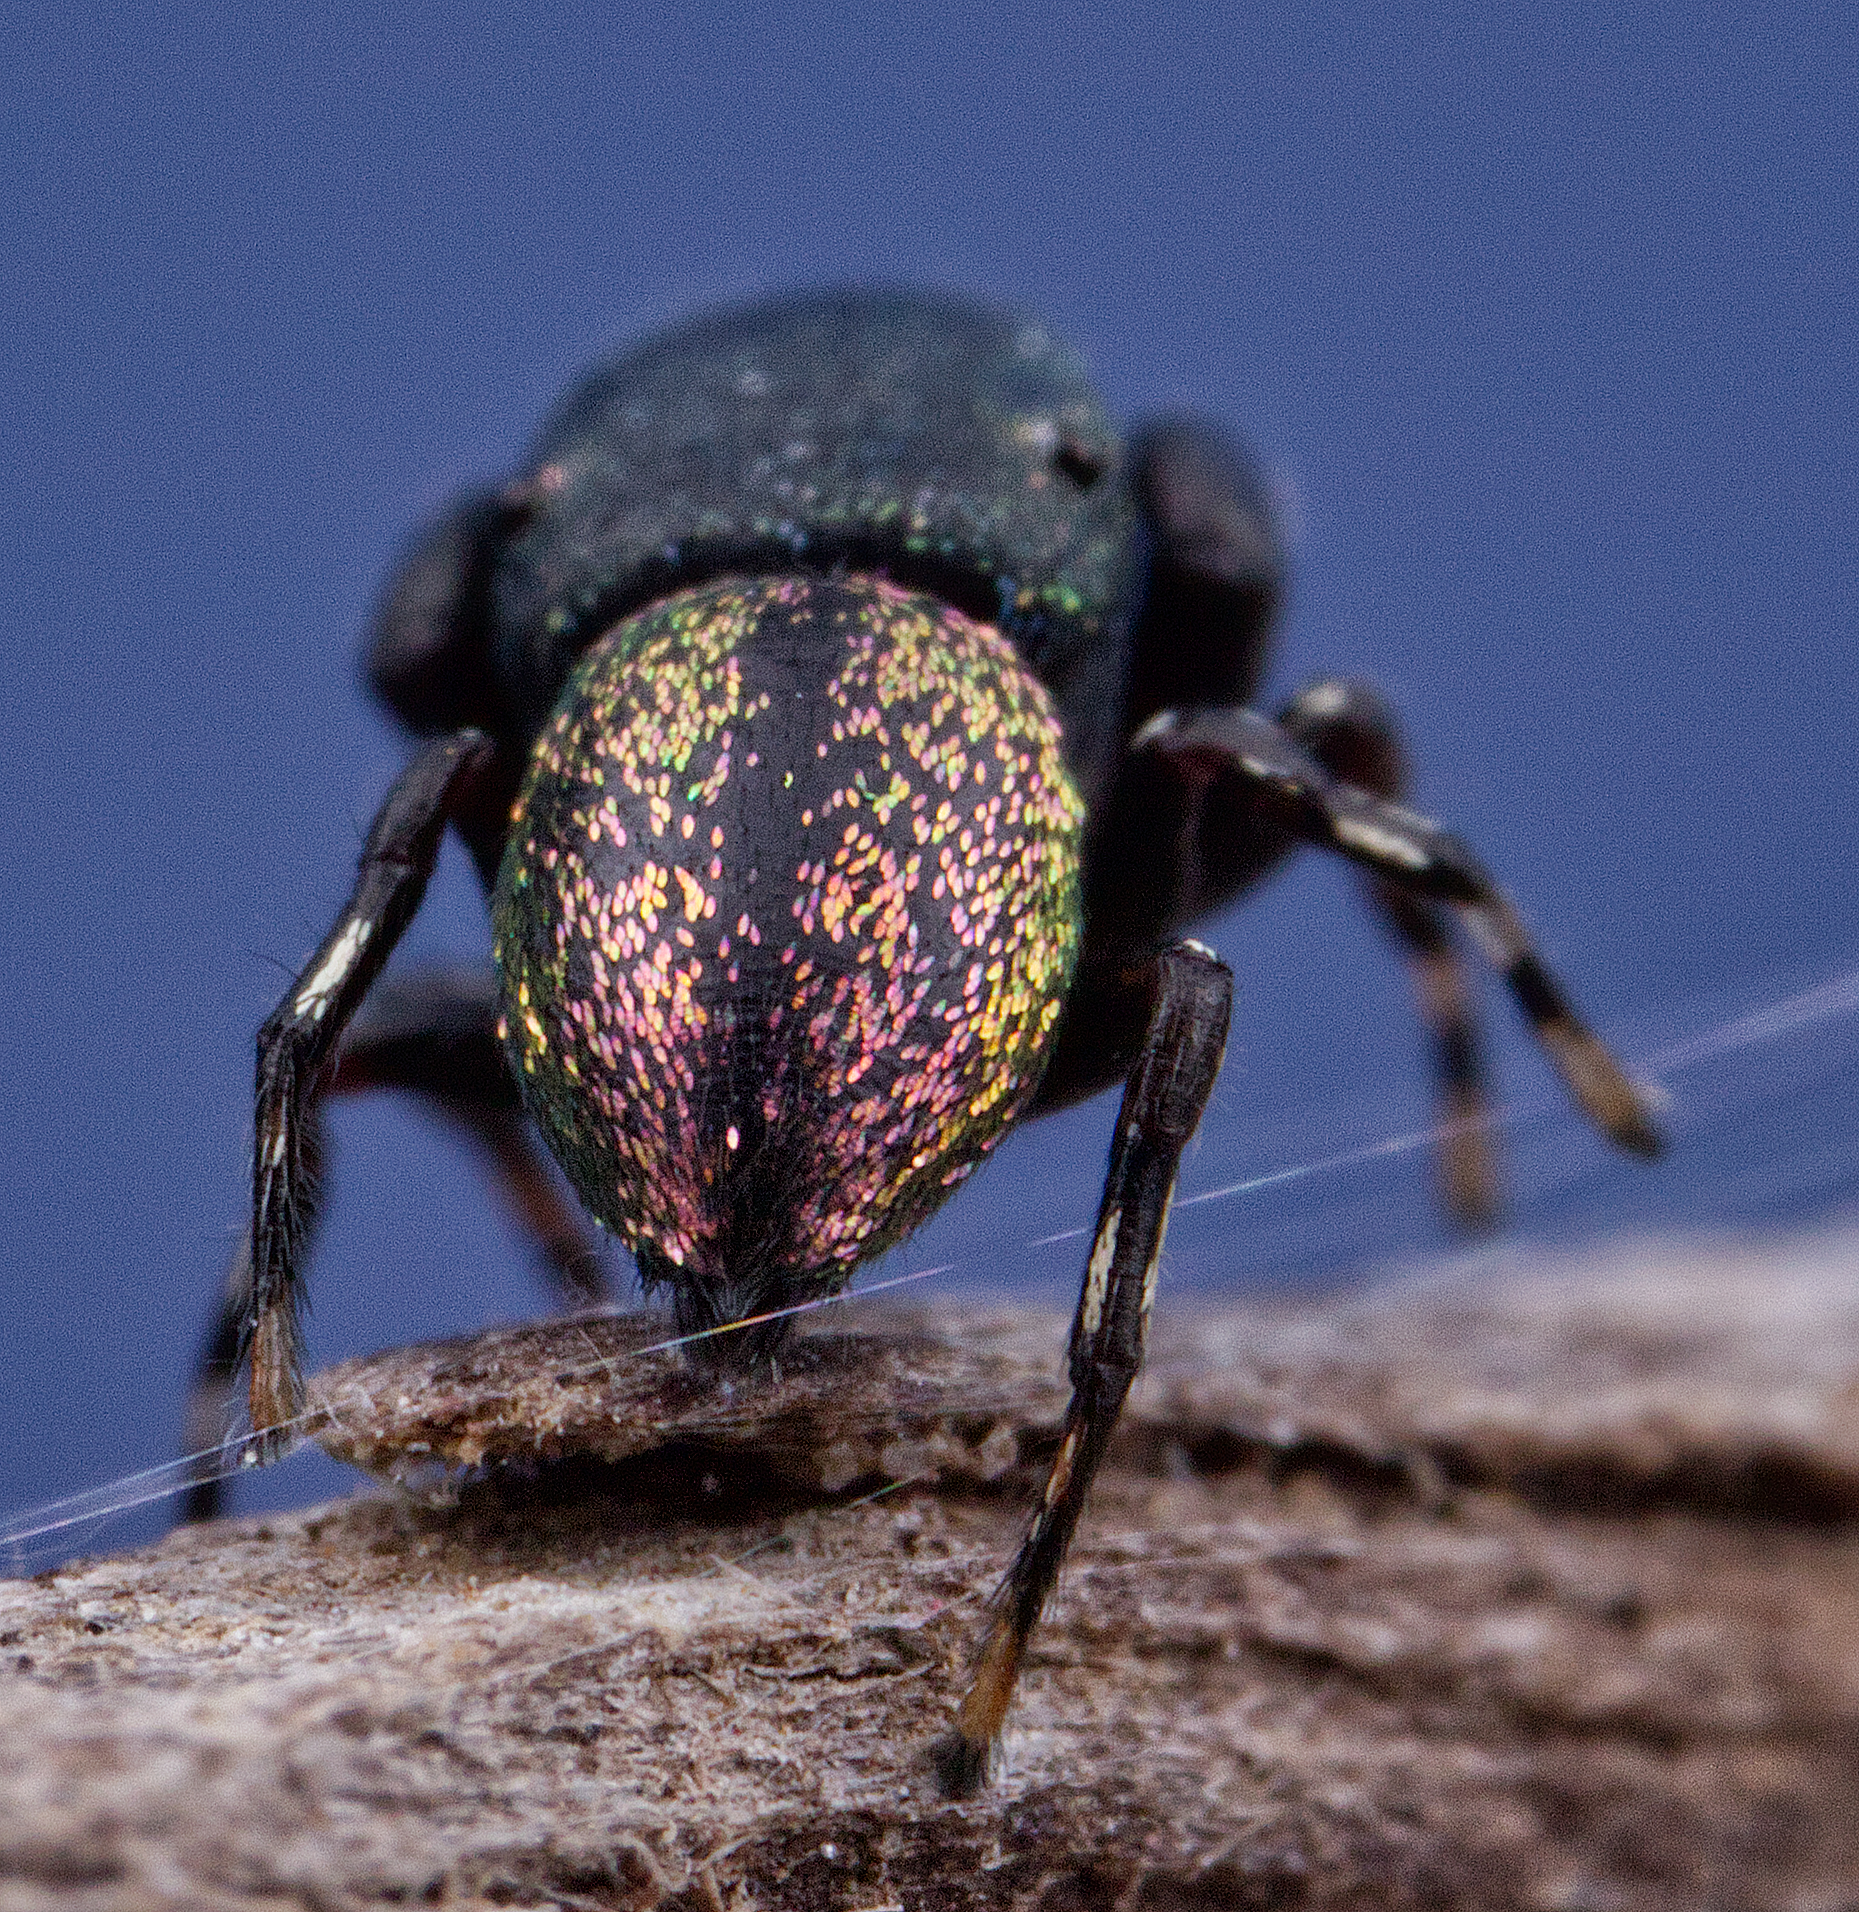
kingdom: Animalia
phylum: Arthropoda
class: Arachnida
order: Araneae
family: Salticidae
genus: Sassacus
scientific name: Sassacus cyaneus
